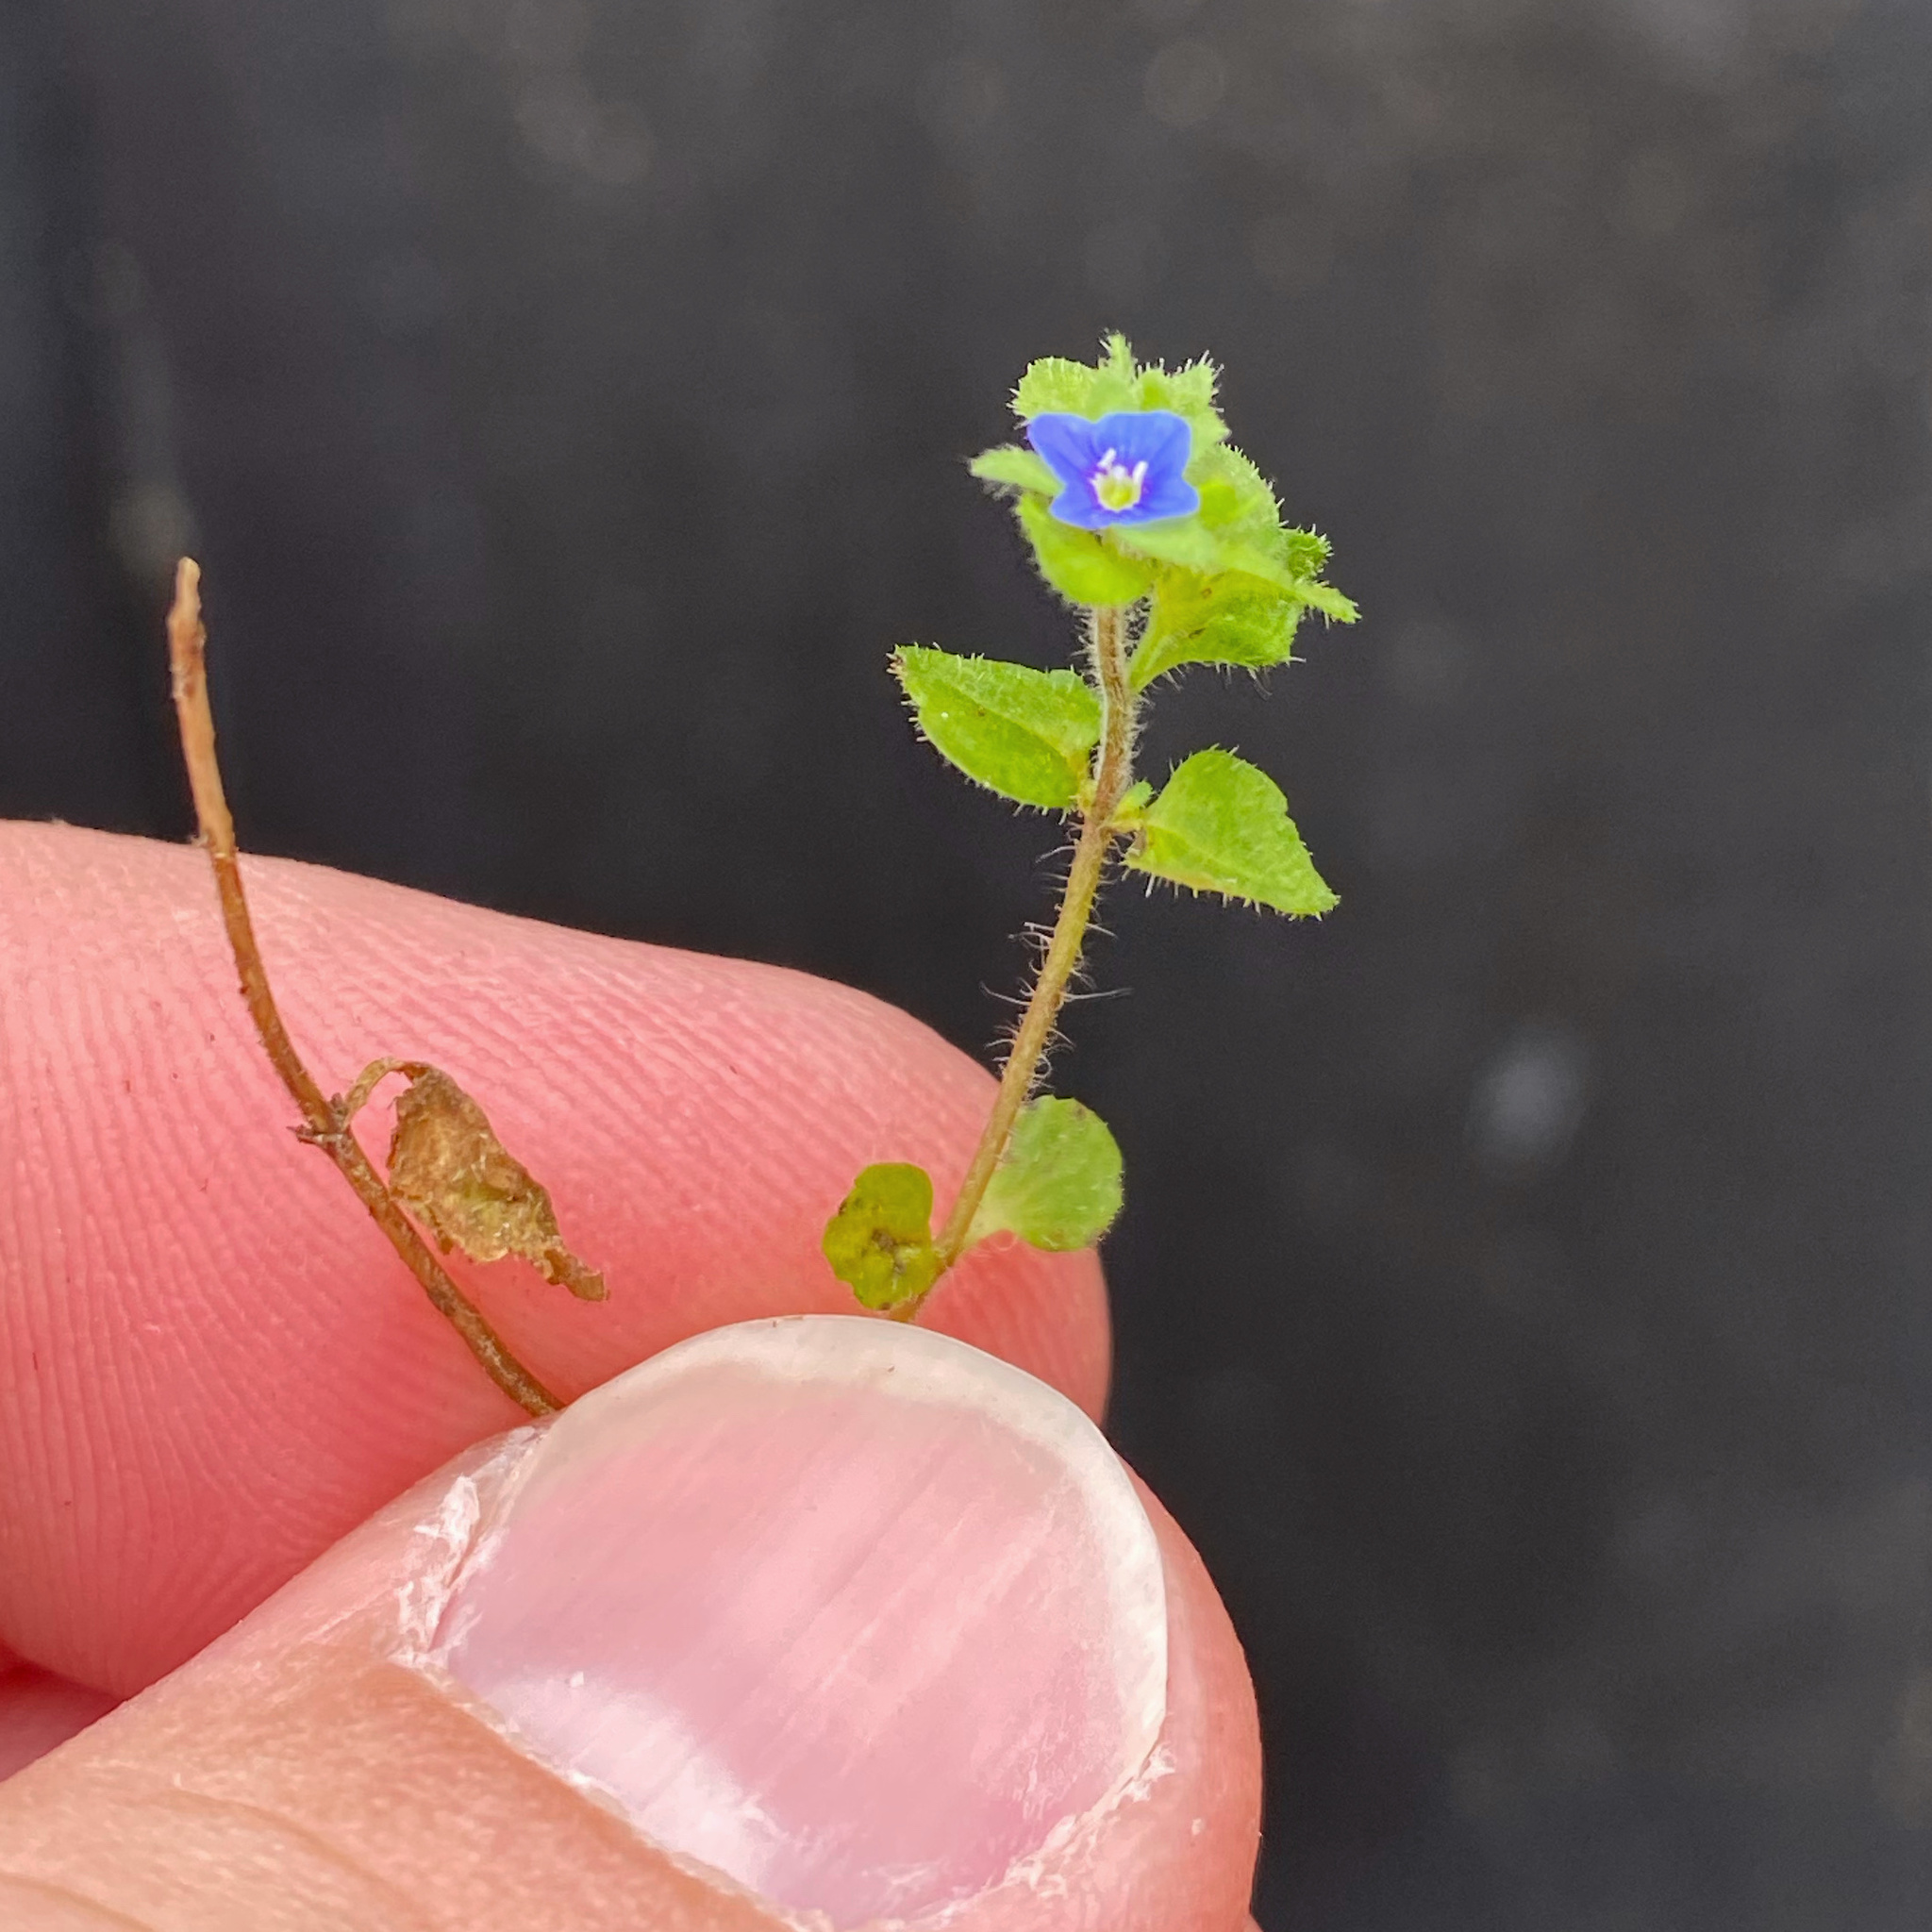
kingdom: Plantae
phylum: Tracheophyta
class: Magnoliopsida
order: Lamiales
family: Plantaginaceae
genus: Veronica
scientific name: Veronica arvensis
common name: Corn speedwell
